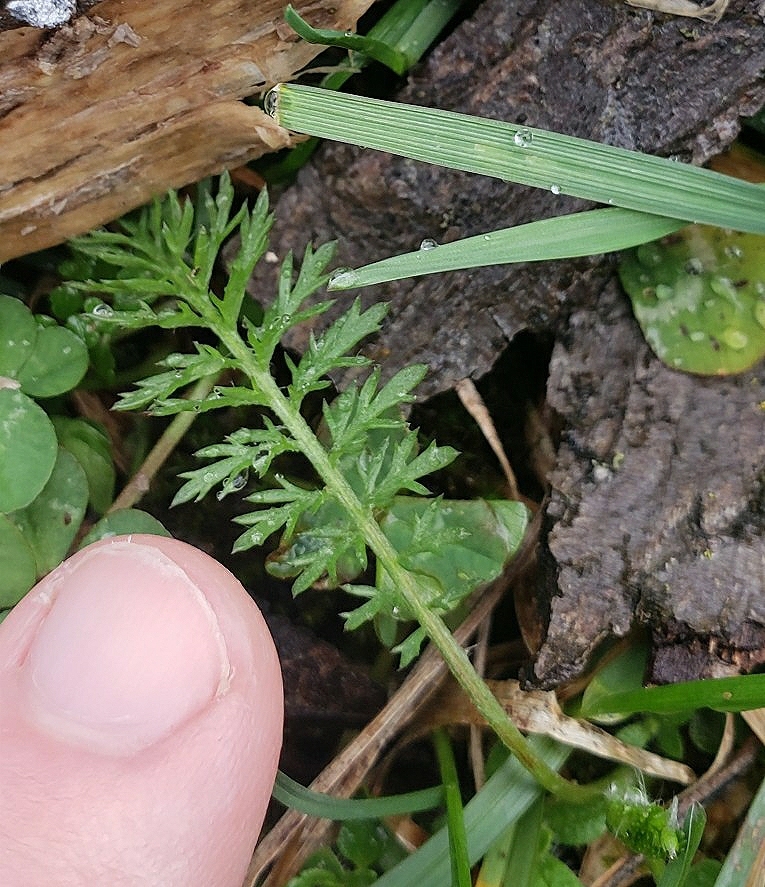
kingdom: Plantae
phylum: Tracheophyta
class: Magnoliopsida
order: Asterales
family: Asteraceae
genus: Achillea
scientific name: Achillea millefolium
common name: Yarrow
